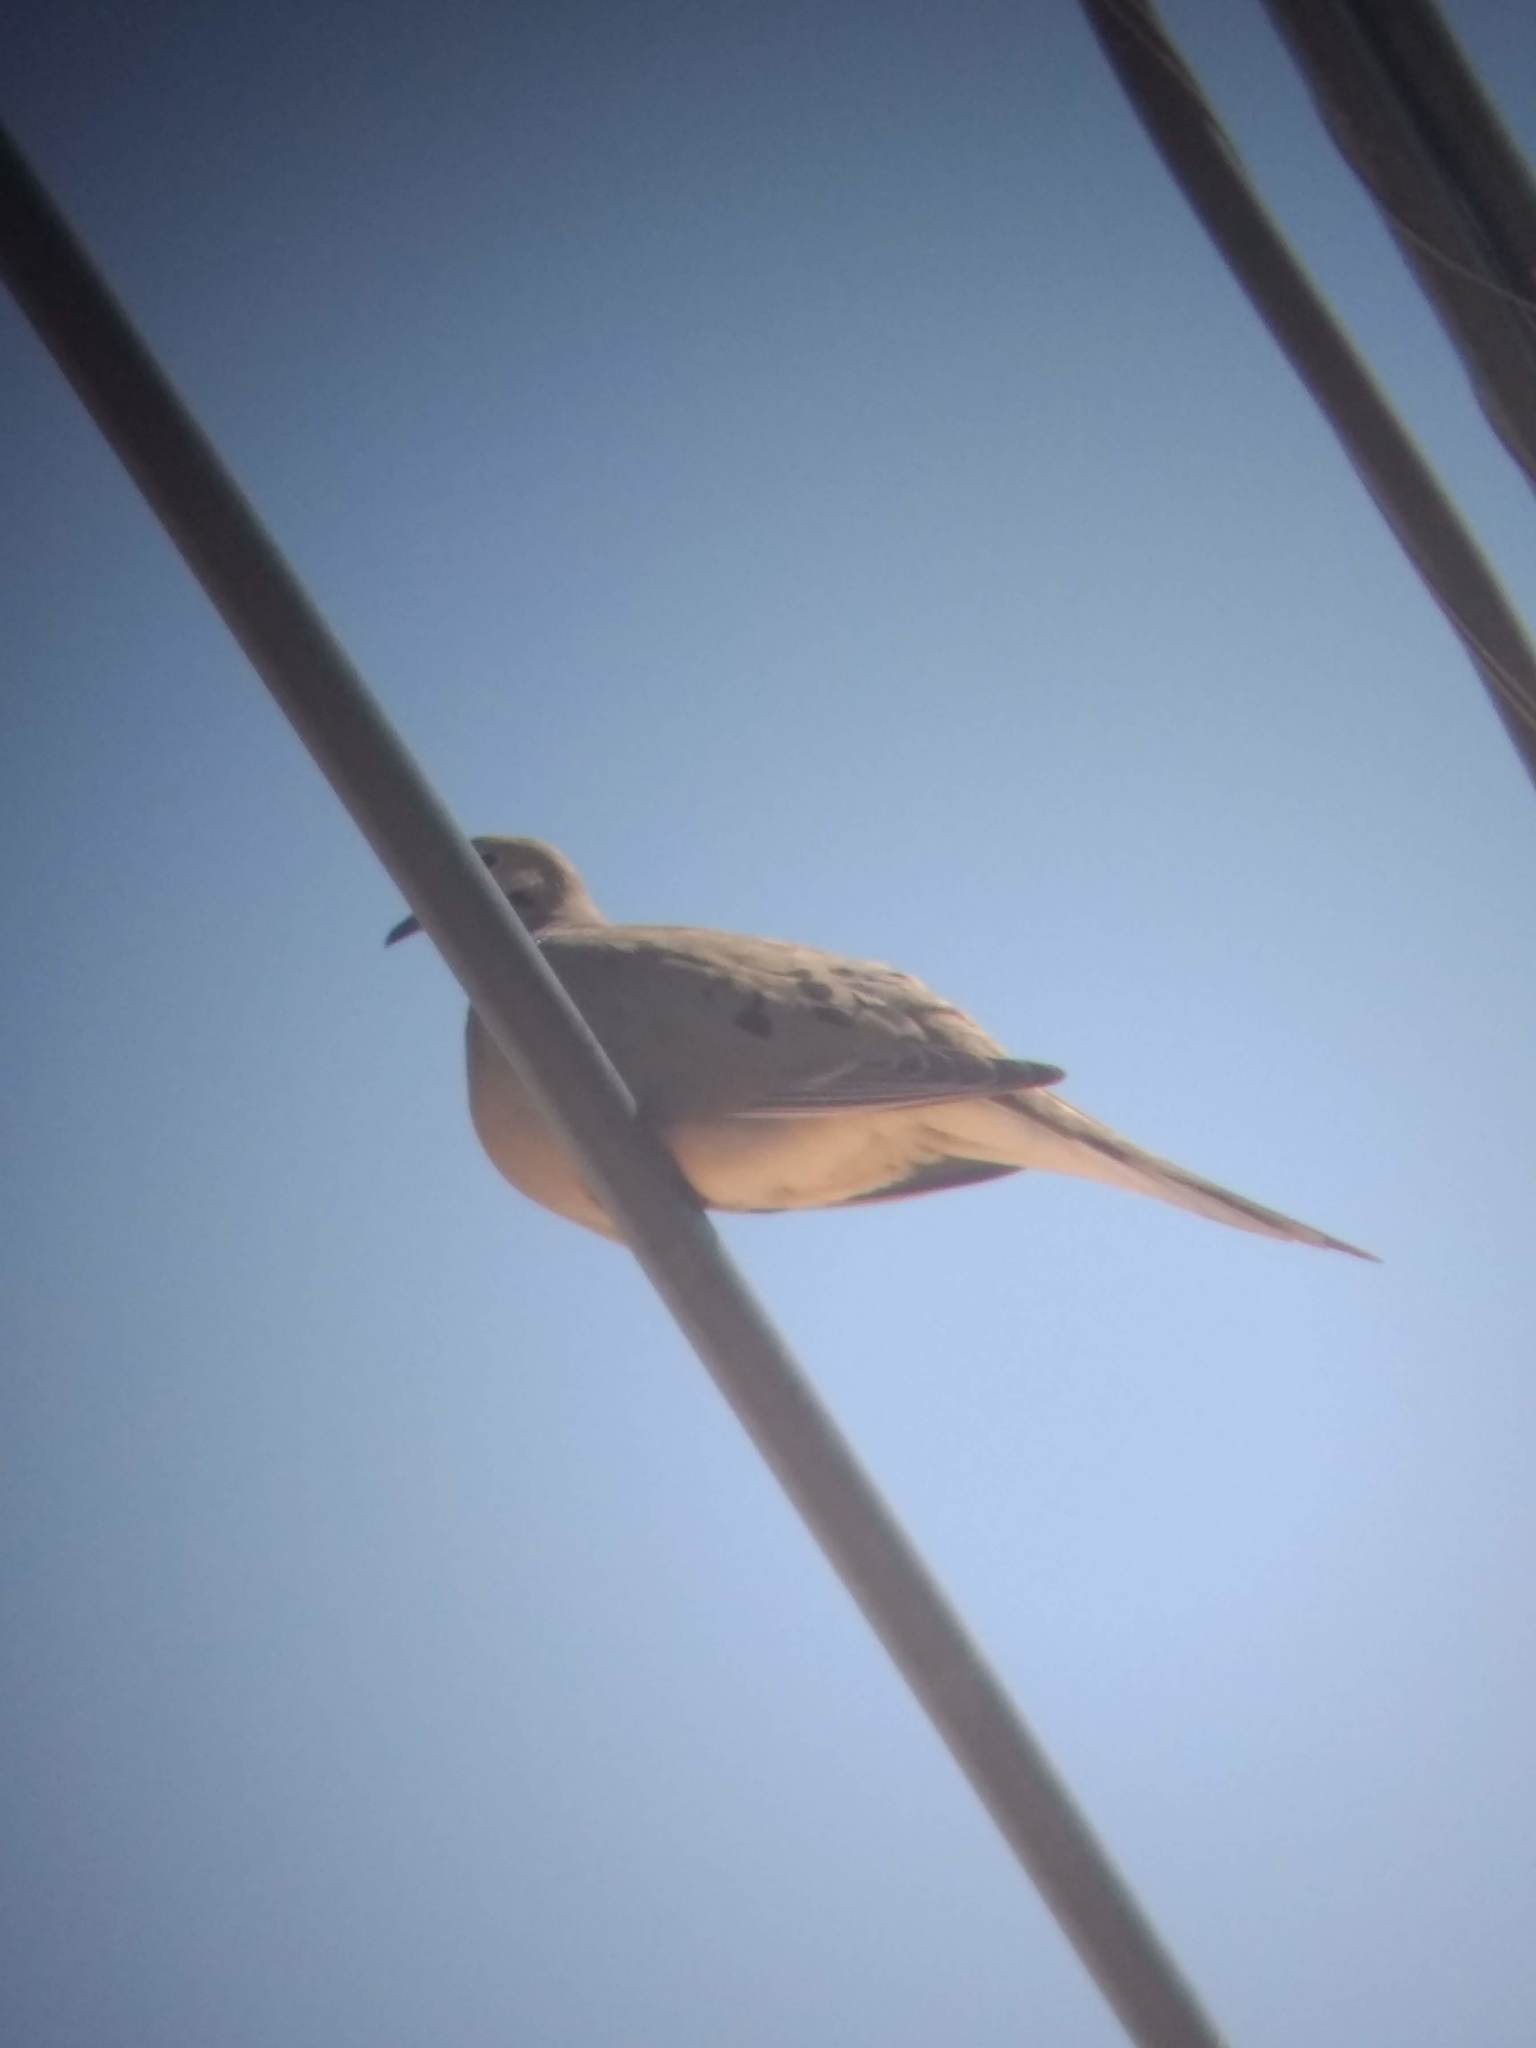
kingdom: Animalia
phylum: Chordata
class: Aves
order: Columbiformes
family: Columbidae
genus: Zenaida
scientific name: Zenaida macroura
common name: Mourning dove
